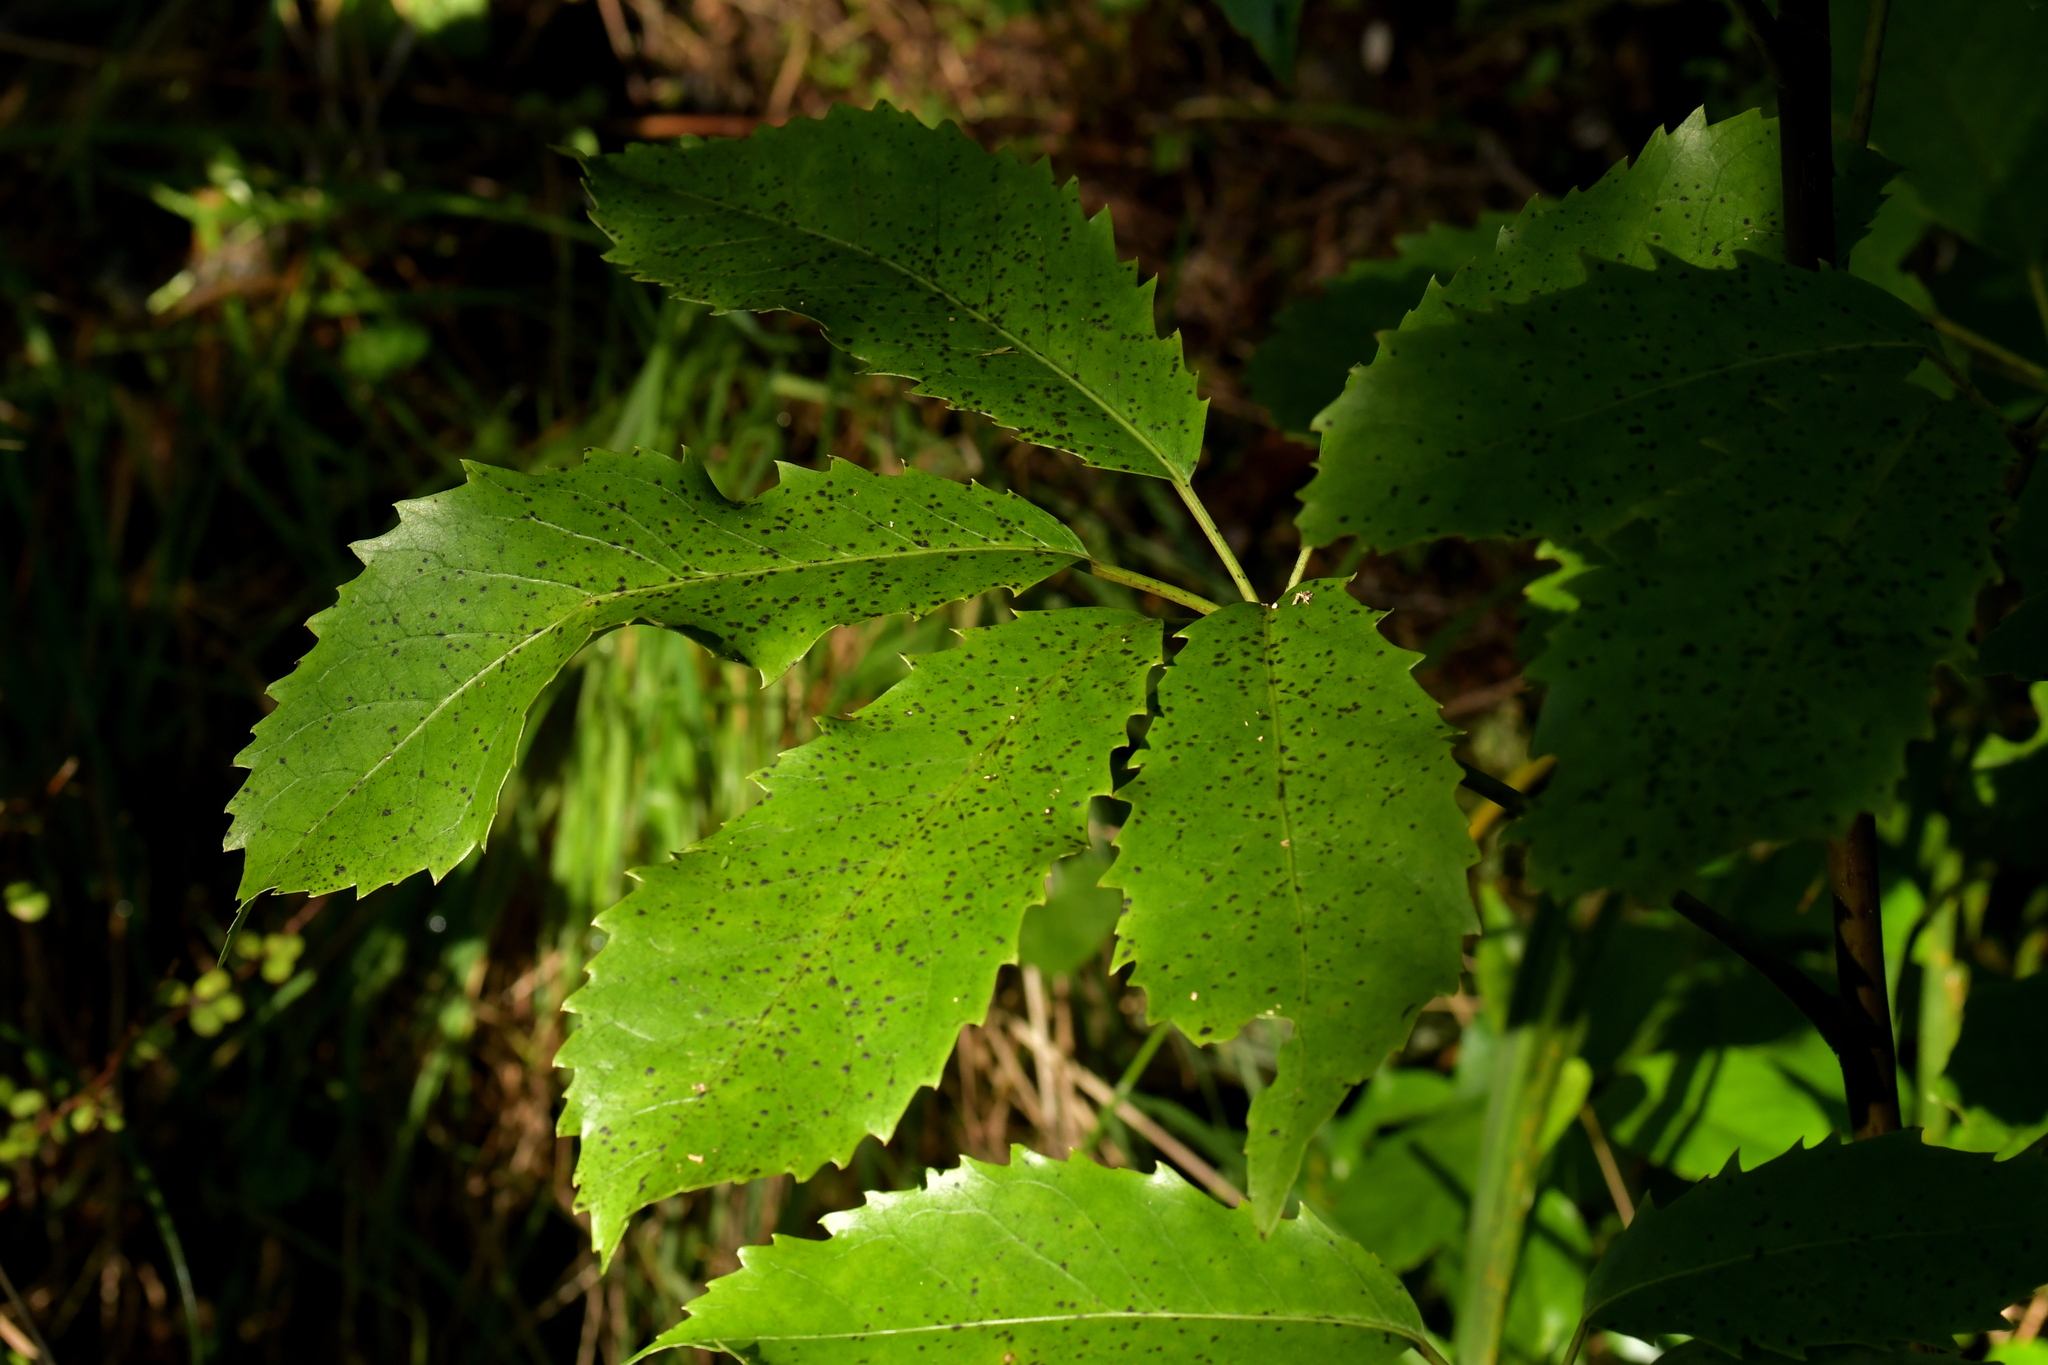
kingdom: Plantae
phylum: Tracheophyta
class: Magnoliopsida
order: Apiales
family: Araliaceae
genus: Neopanax
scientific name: Neopanax arboreus
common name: Five-fingers
